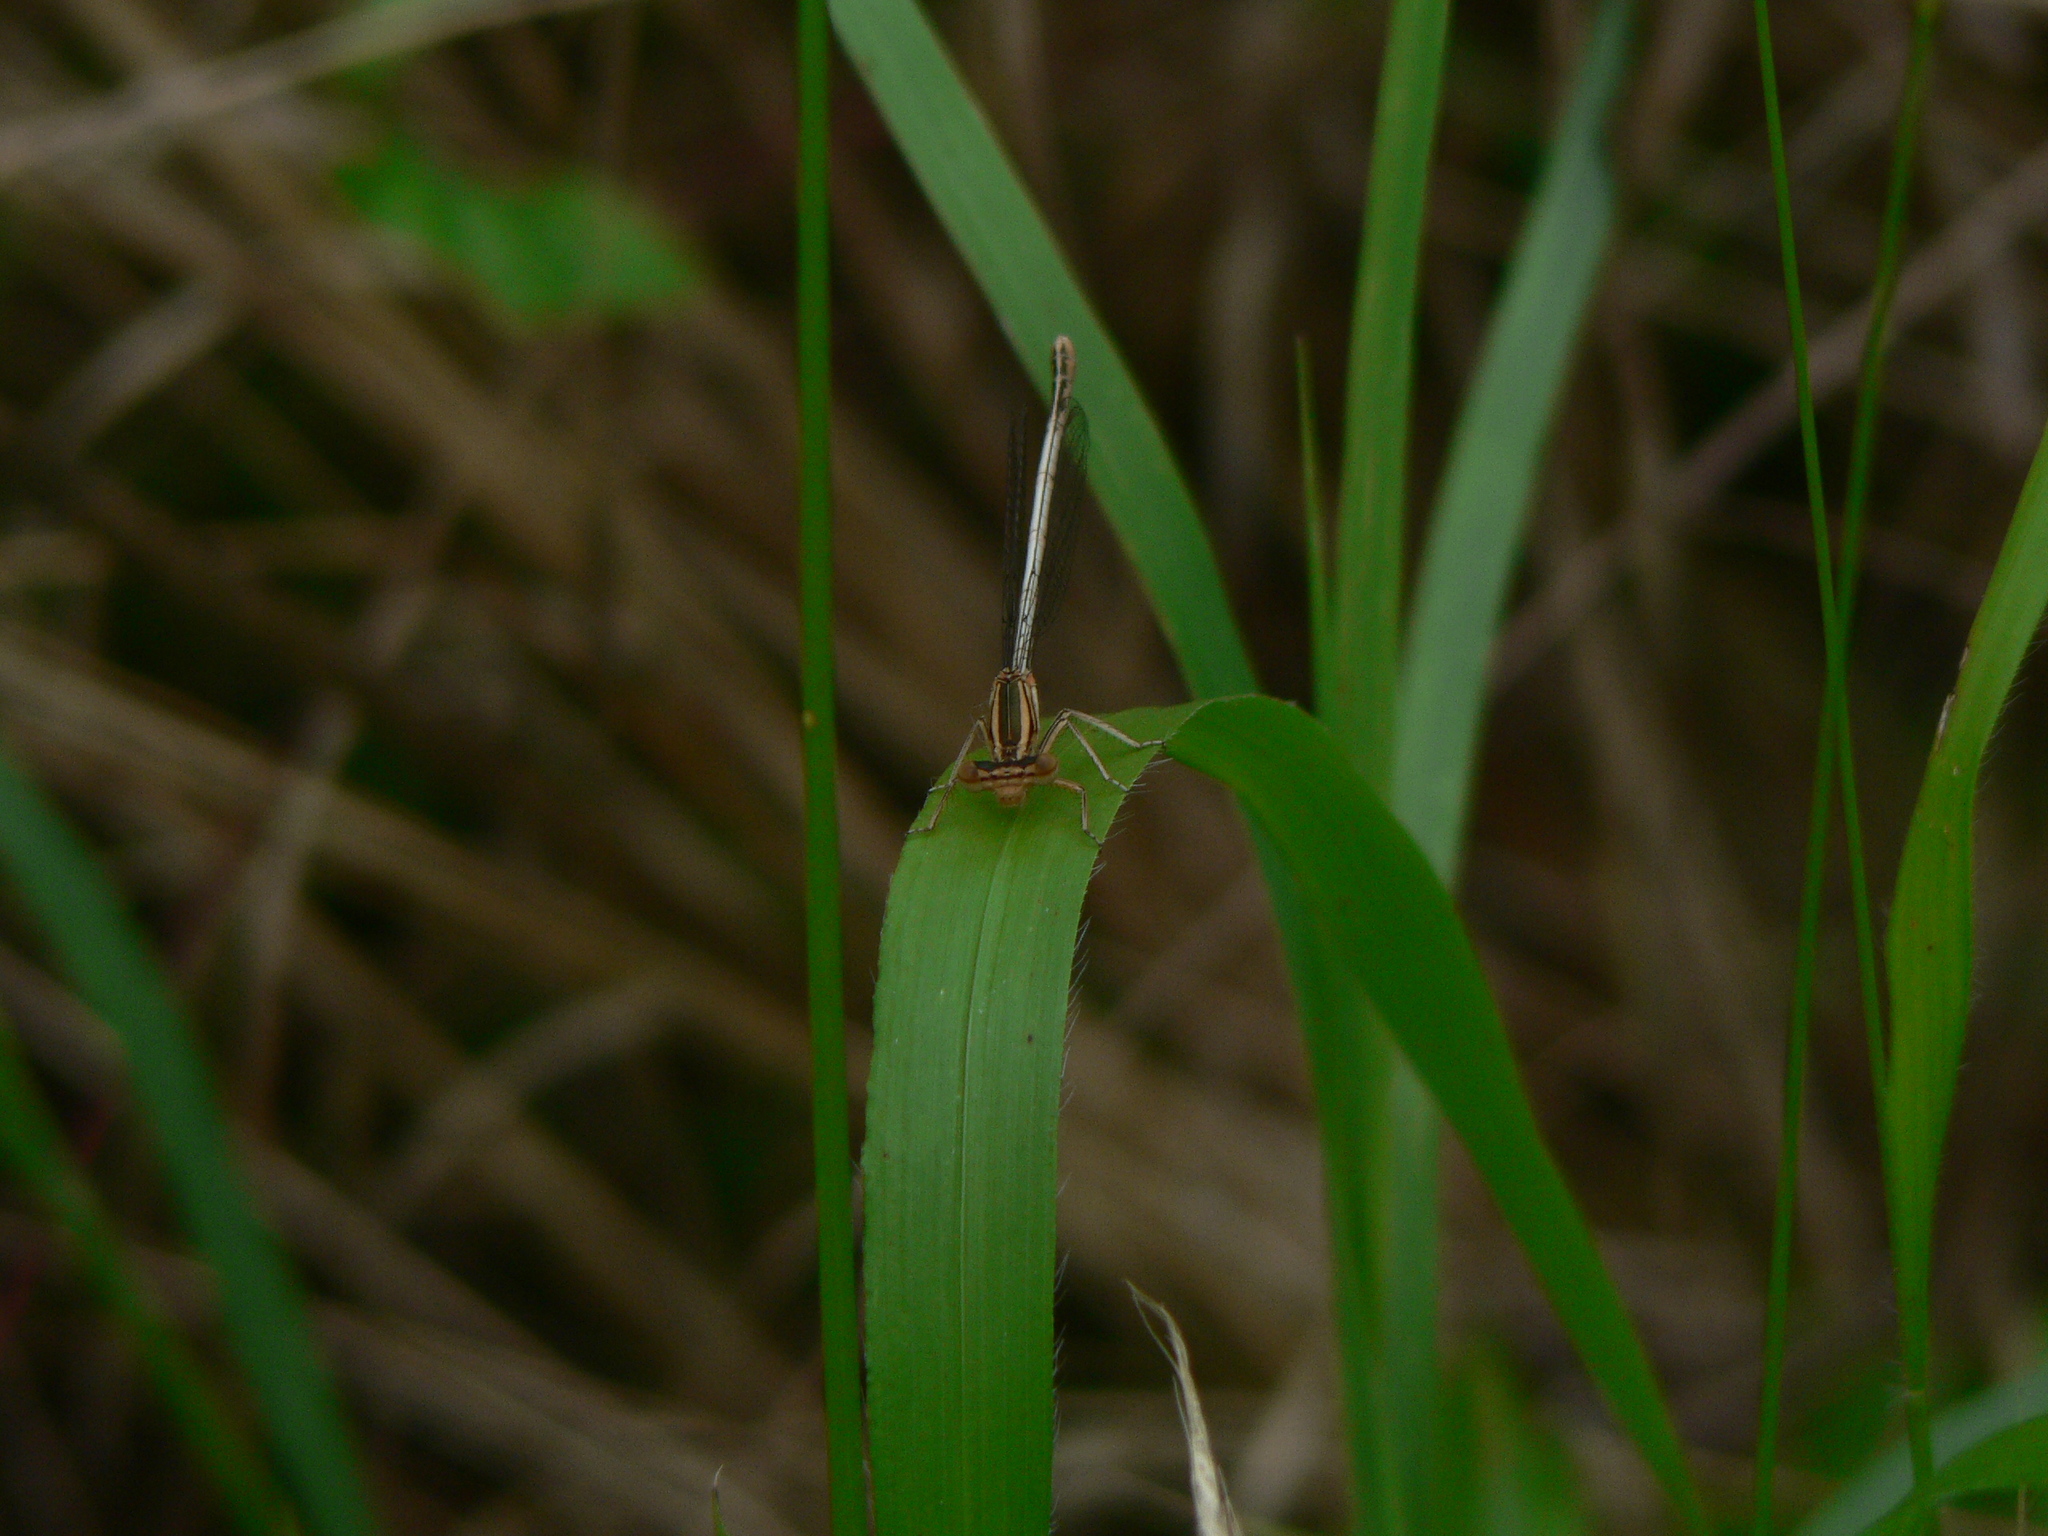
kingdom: Animalia
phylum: Arthropoda
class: Insecta
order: Odonata
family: Platycnemididae
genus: Platycnemis
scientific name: Platycnemis latipes
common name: White featherleg
